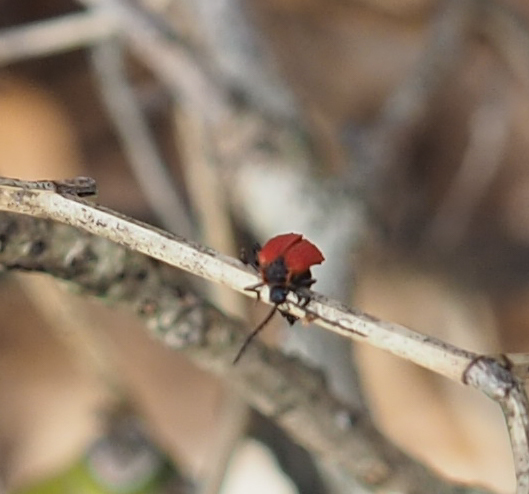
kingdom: Animalia
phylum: Arthropoda
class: Insecta
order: Coleoptera
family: Lycidae
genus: Dictyoptera
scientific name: Dictyoptera aurora
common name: Golden net-winged beetle
